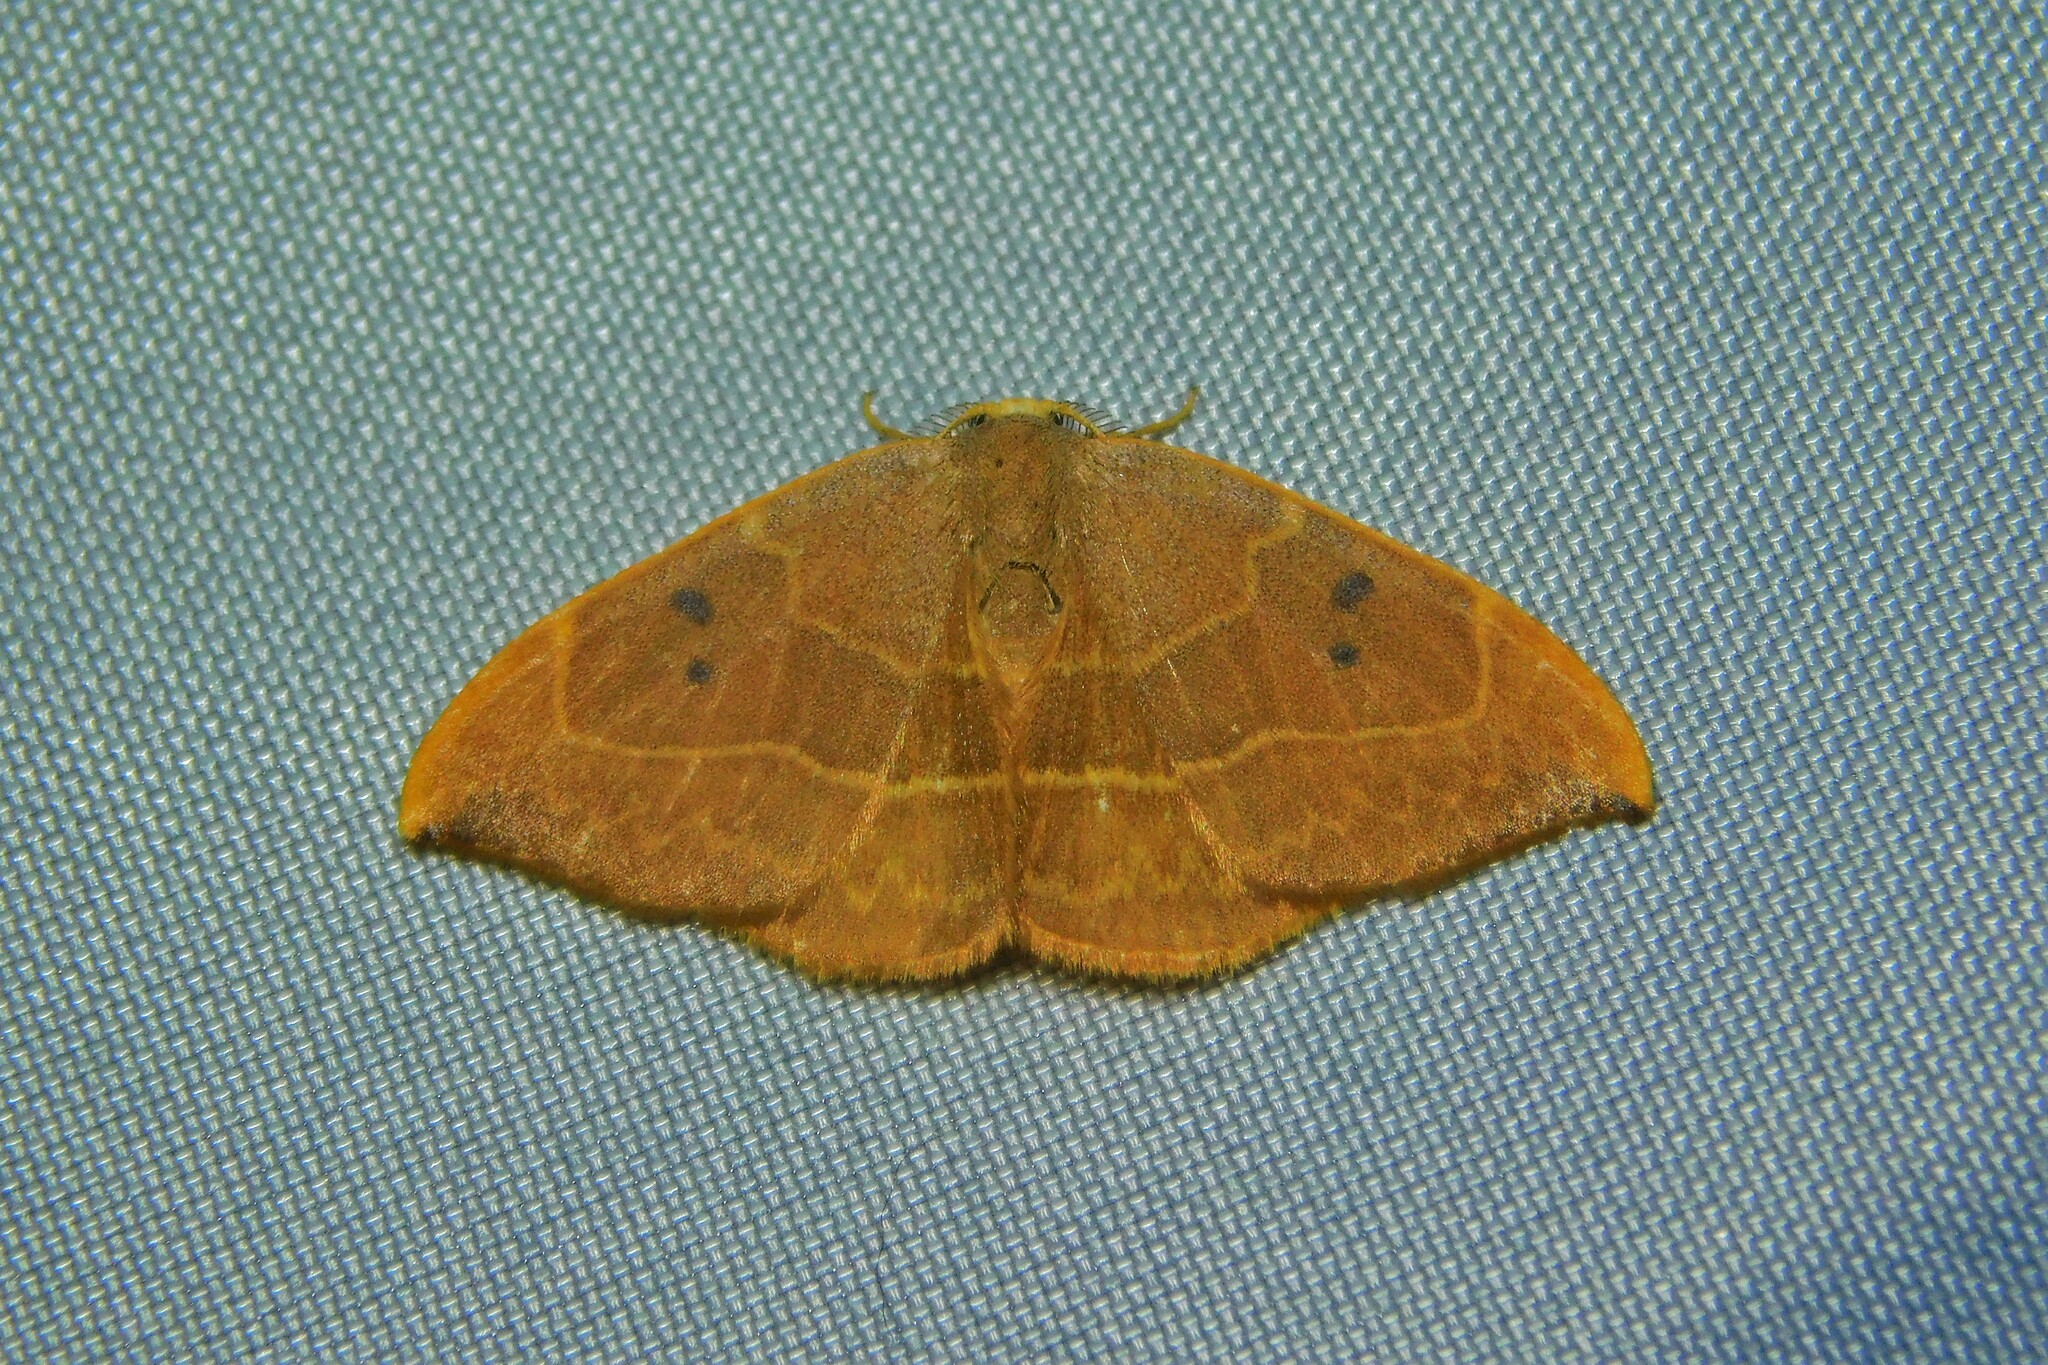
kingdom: Animalia
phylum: Arthropoda
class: Insecta
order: Lepidoptera
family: Drepanidae
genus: Watsonalla
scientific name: Watsonalla binaria
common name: Oak hook-tip
